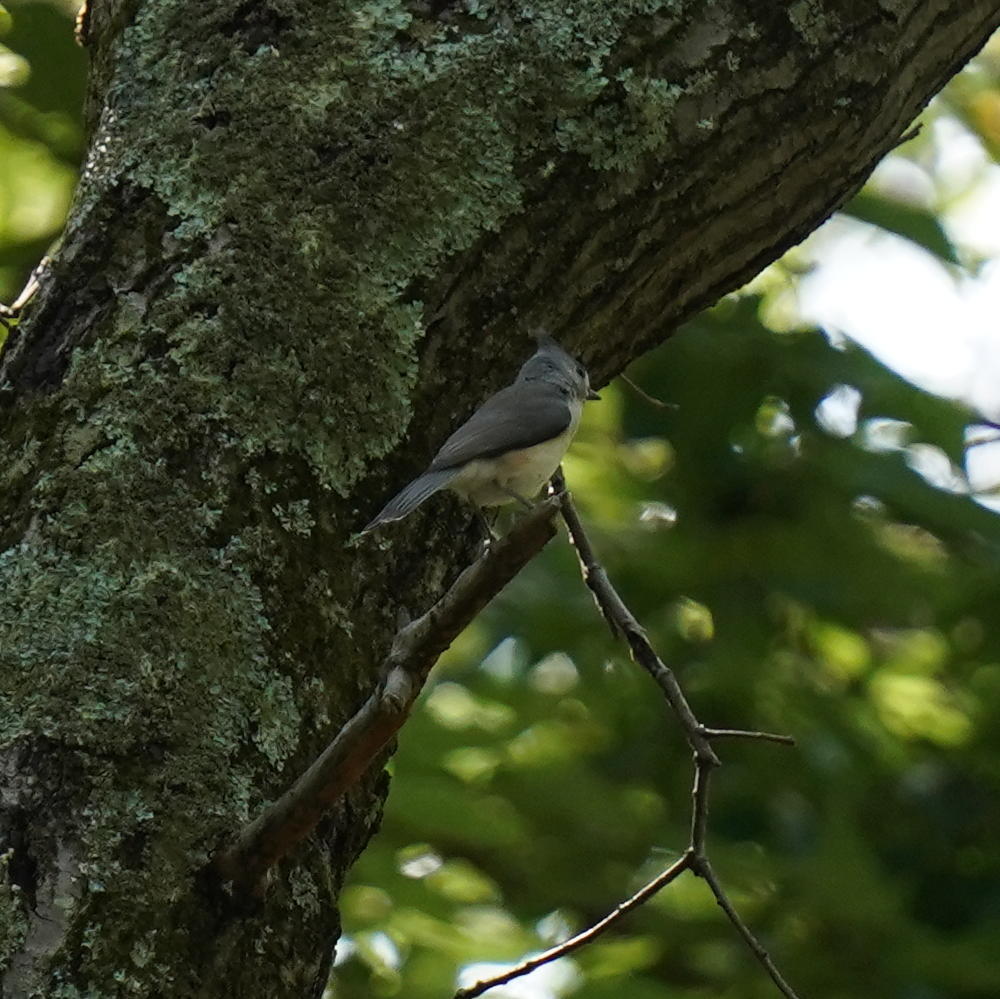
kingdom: Animalia
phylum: Chordata
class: Aves
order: Passeriformes
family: Paridae
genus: Baeolophus
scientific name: Baeolophus bicolor
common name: Tufted titmouse
